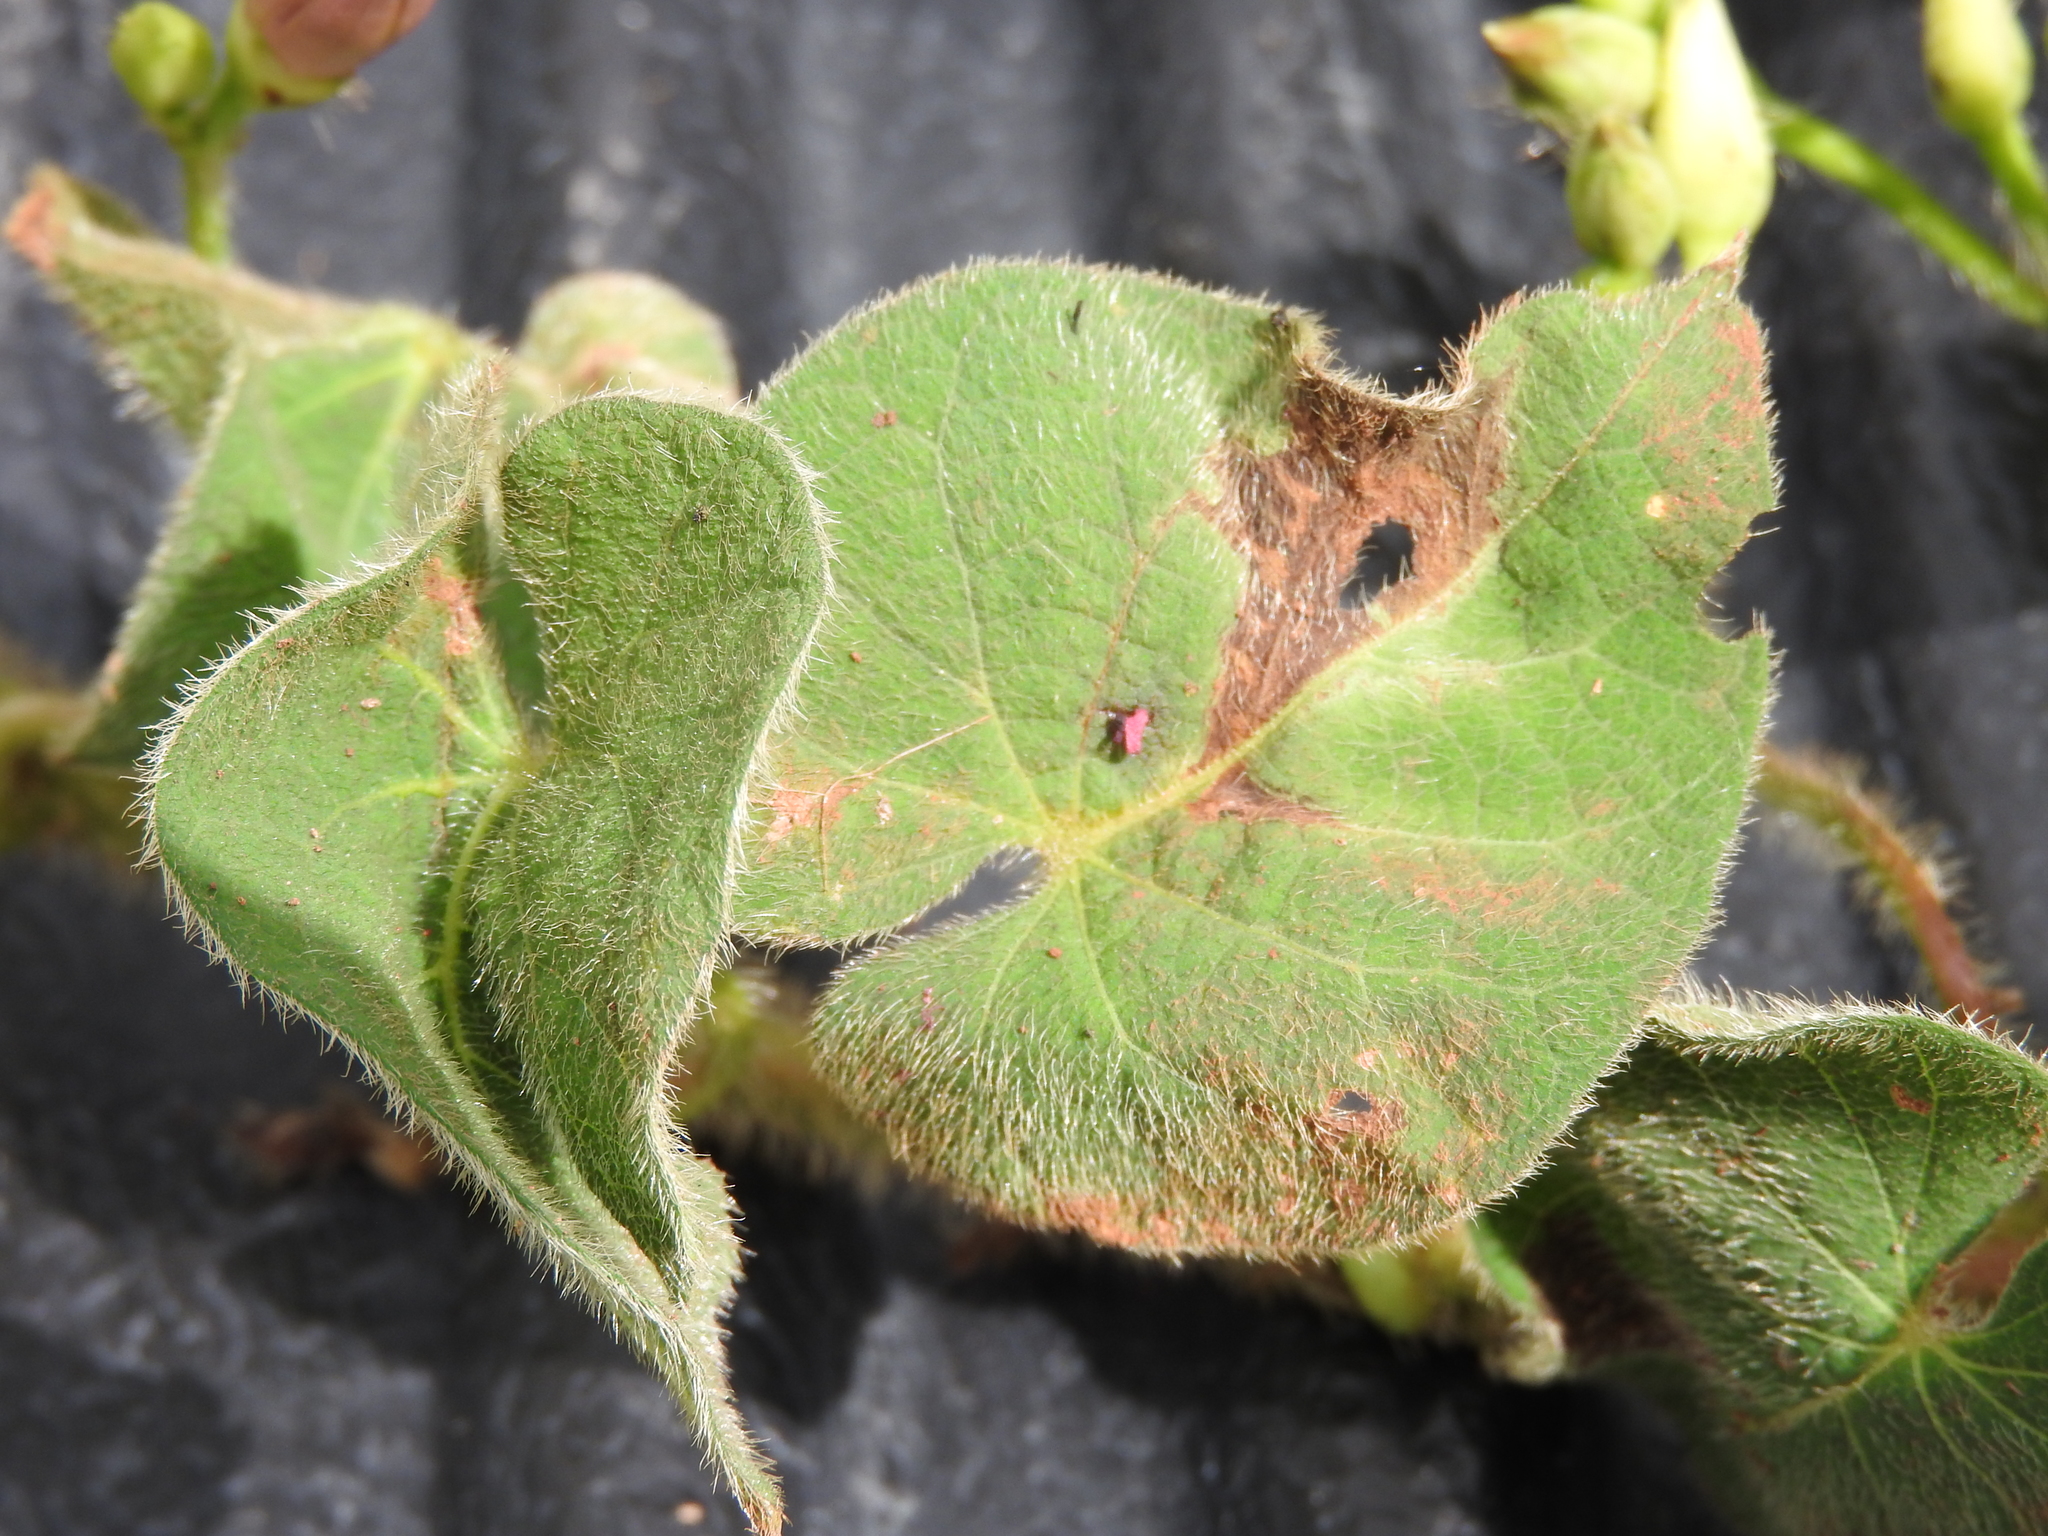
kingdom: Plantae
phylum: Tracheophyta
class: Magnoliopsida
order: Solanales
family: Convolvulaceae
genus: Ipomoea
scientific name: Ipomoea orizabensis
